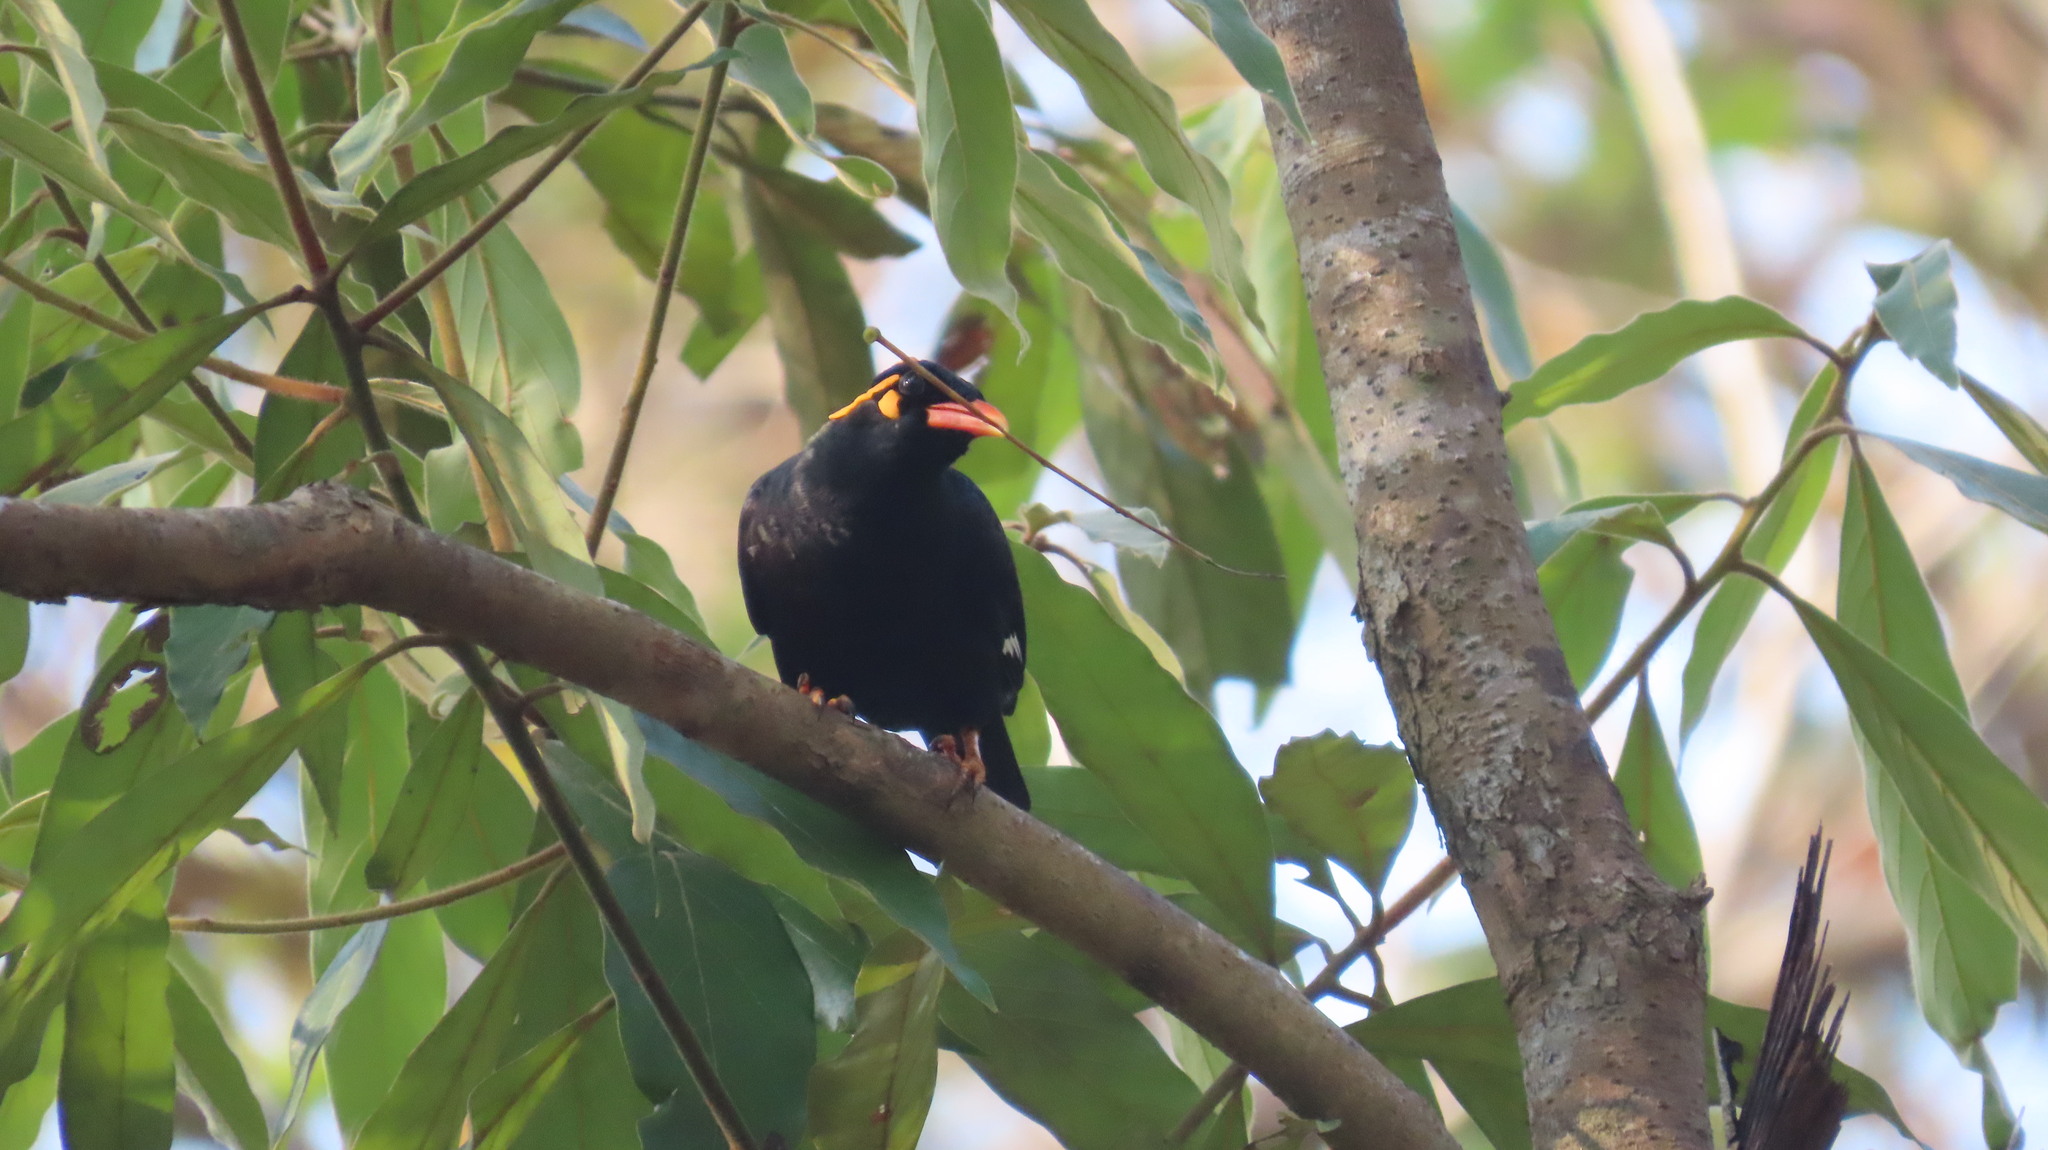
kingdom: Animalia
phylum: Chordata
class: Aves
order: Passeriformes
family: Sturnidae
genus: Gracula
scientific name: Gracula indica
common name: Southern hill myna
